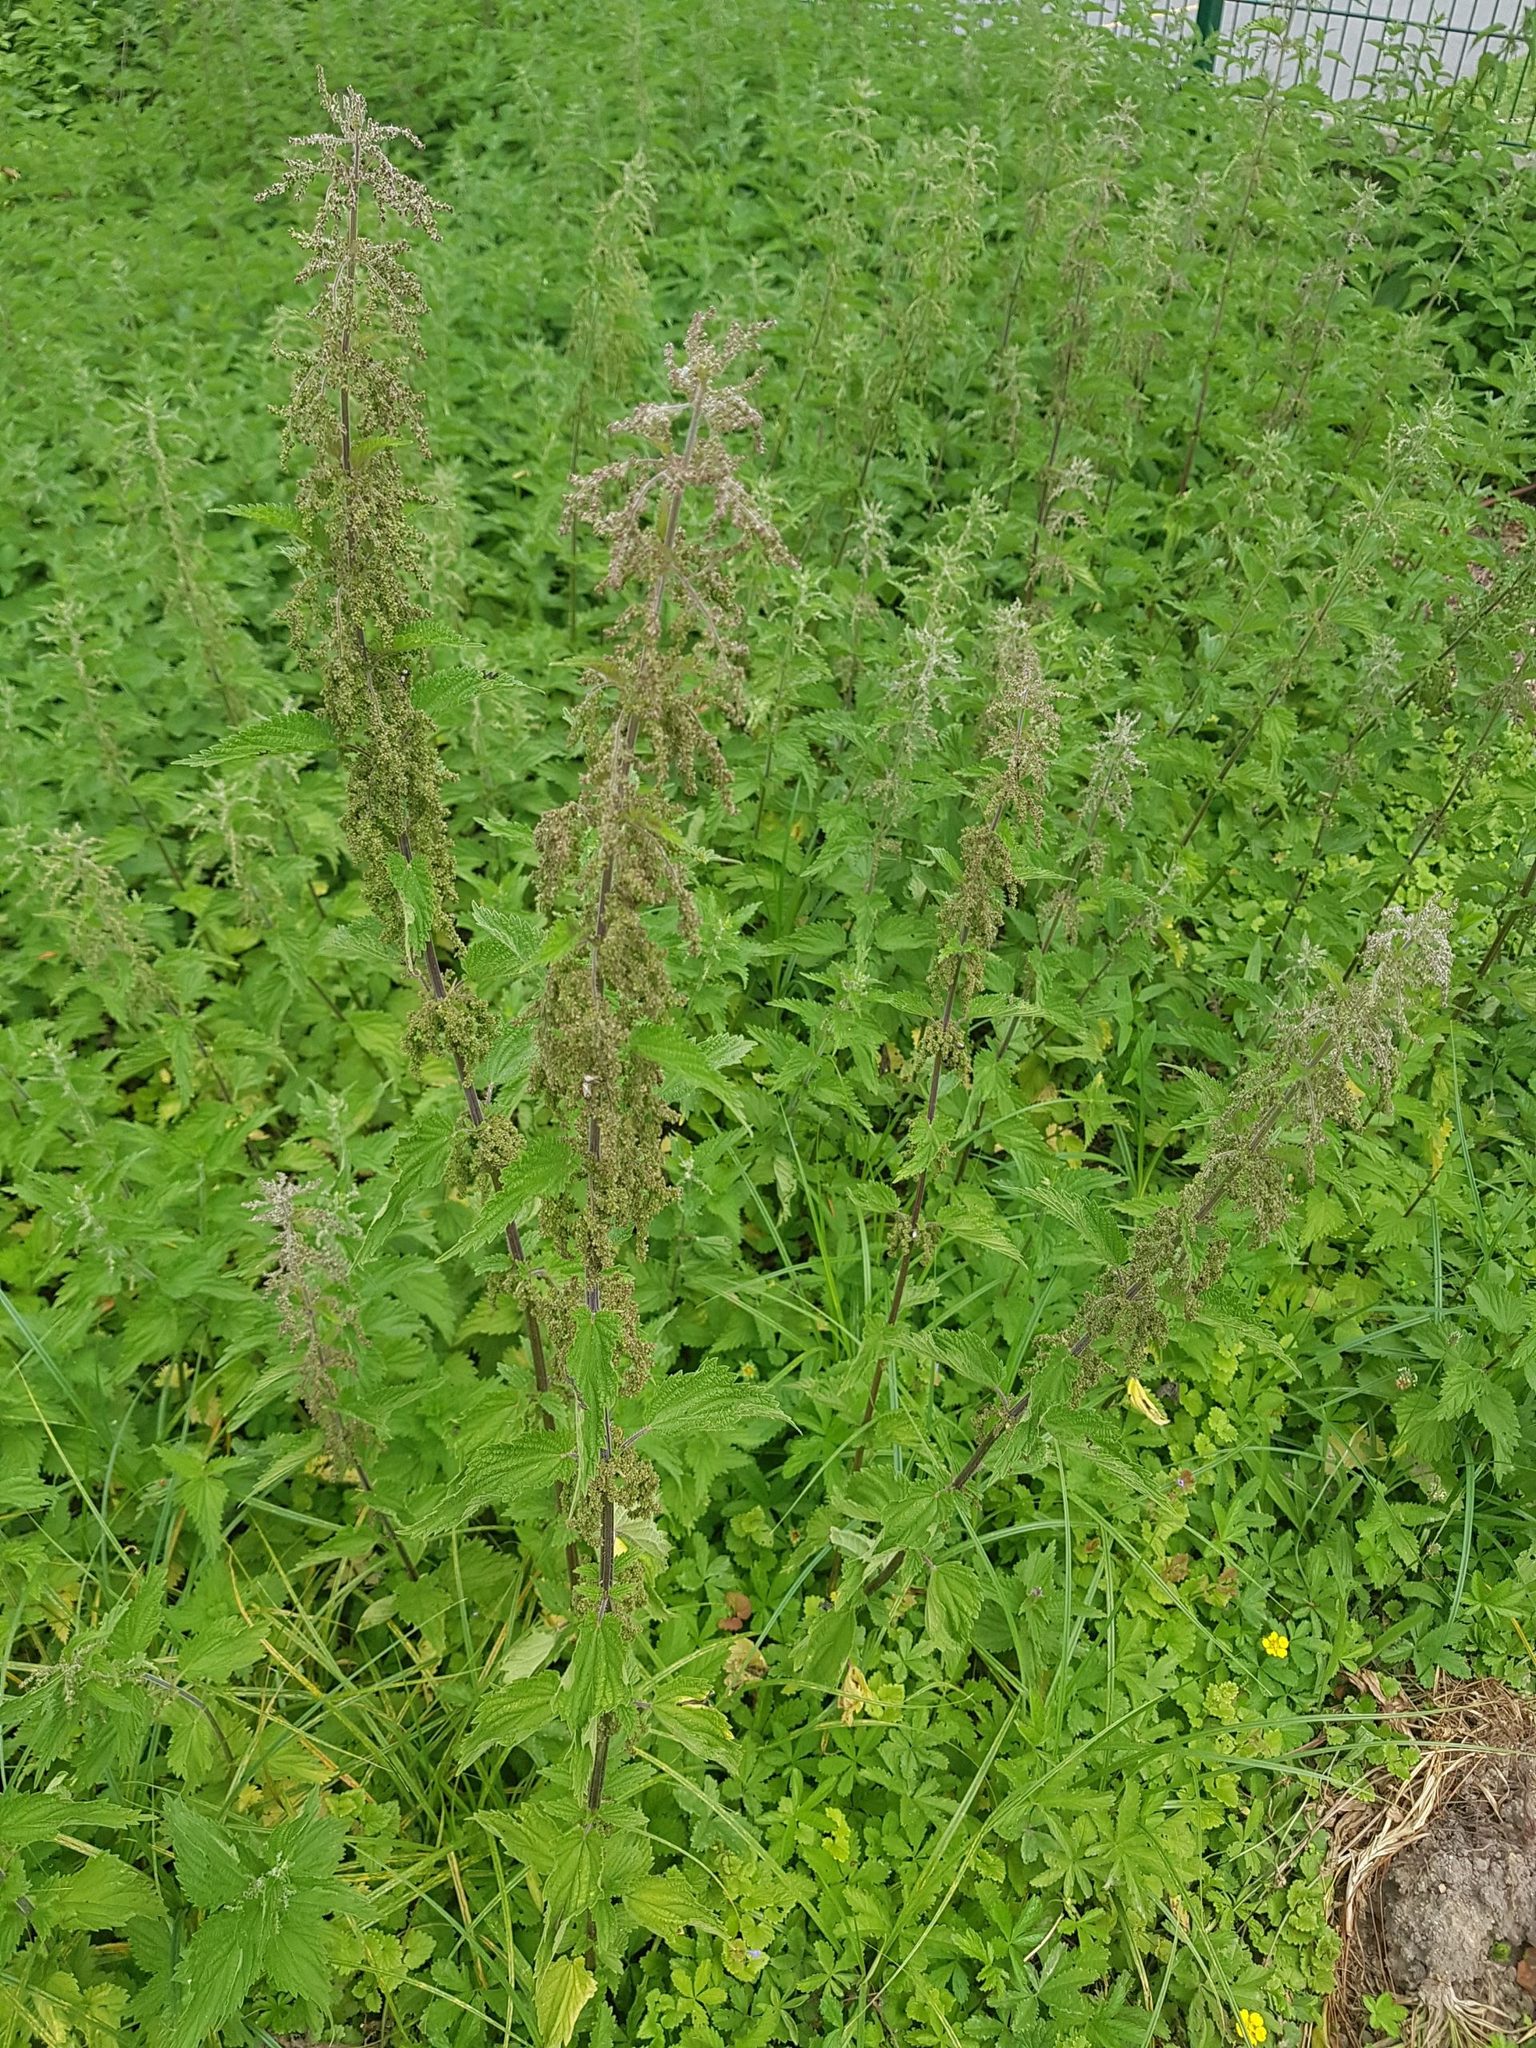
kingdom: Plantae
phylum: Tracheophyta
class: Magnoliopsida
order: Rosales
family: Urticaceae
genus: Urtica
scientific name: Urtica dioica
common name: Common nettle
